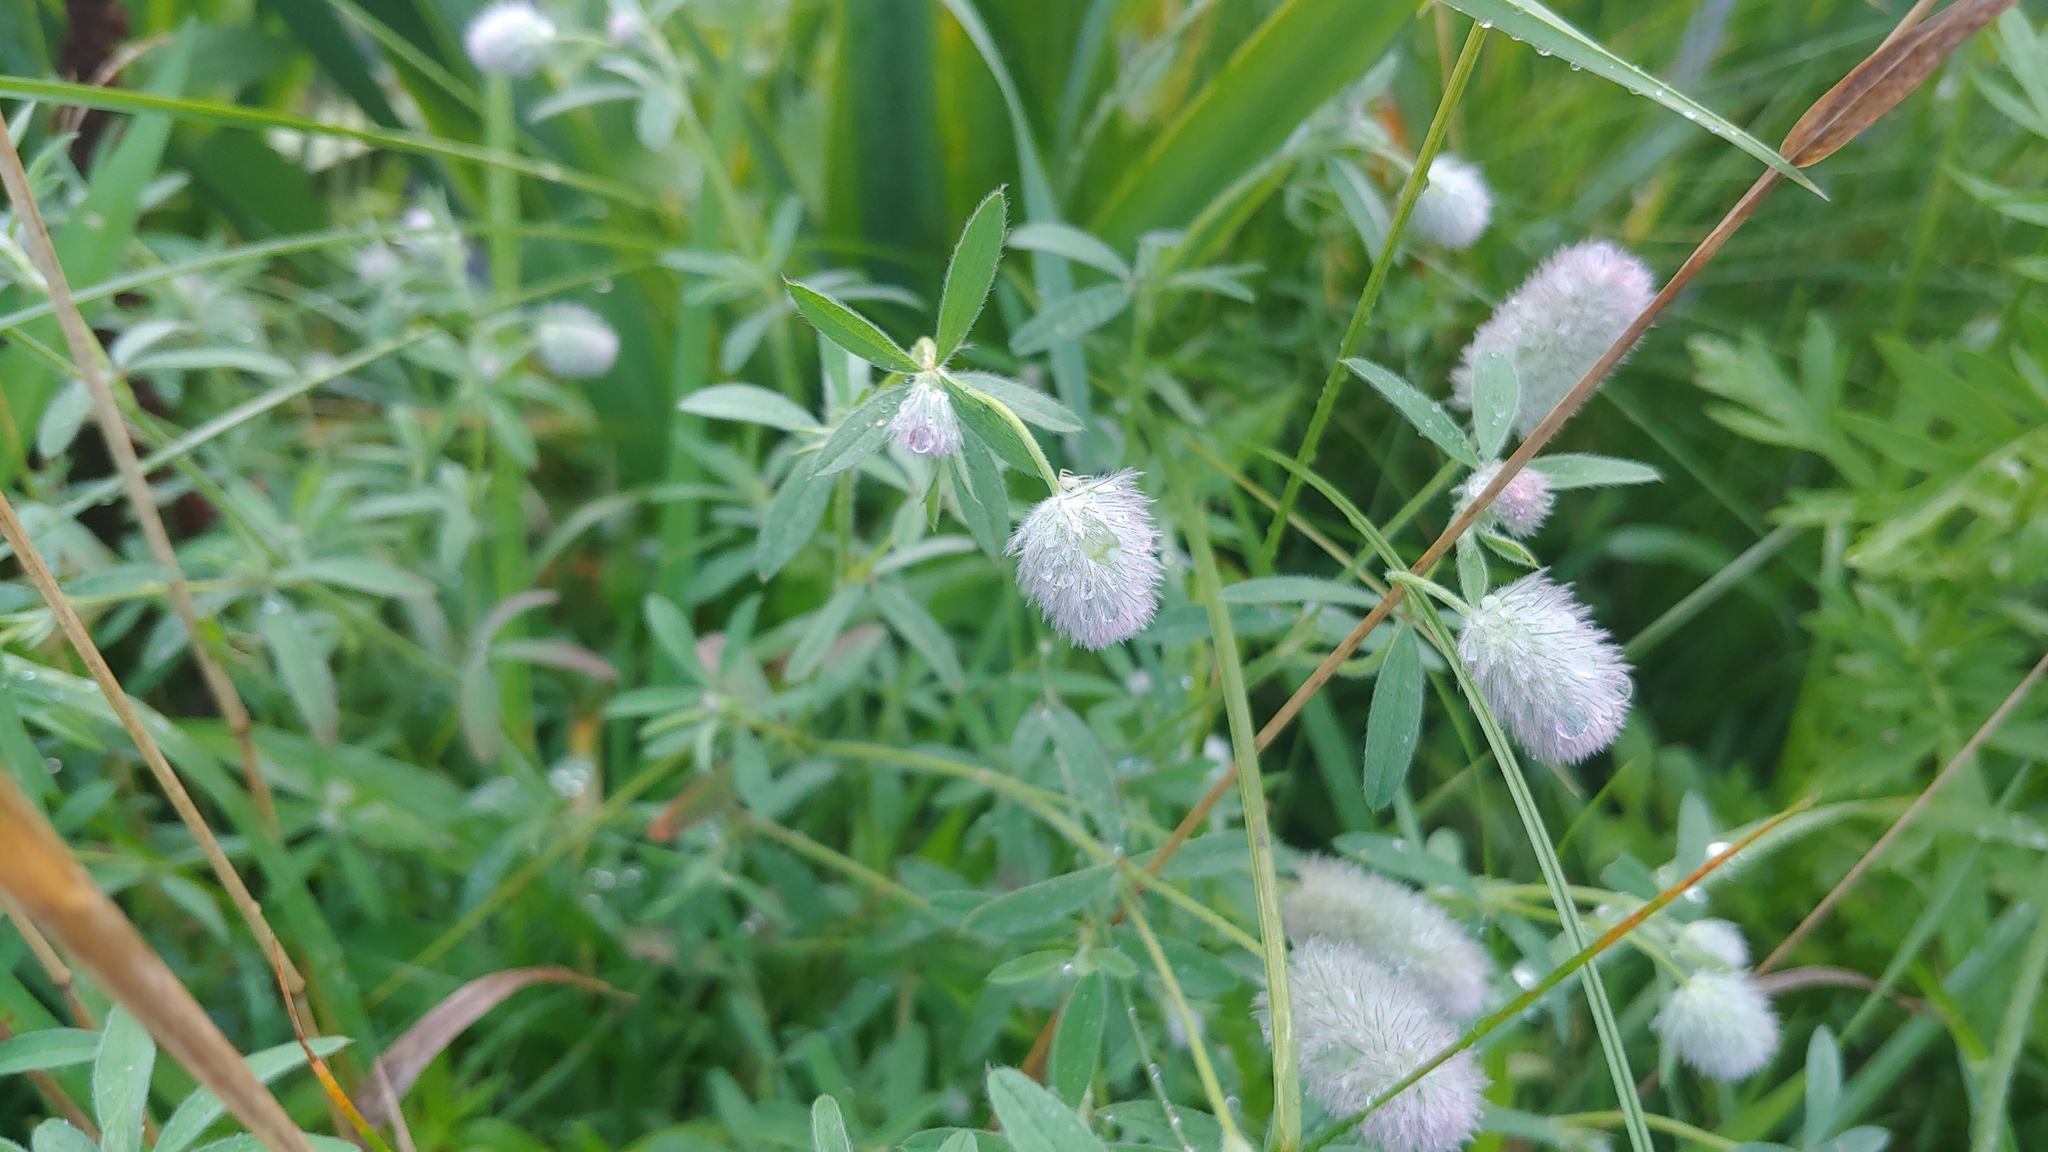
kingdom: Plantae
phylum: Tracheophyta
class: Magnoliopsida
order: Fabales
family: Fabaceae
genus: Trifolium
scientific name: Trifolium arvense
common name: Hare's-foot clover
